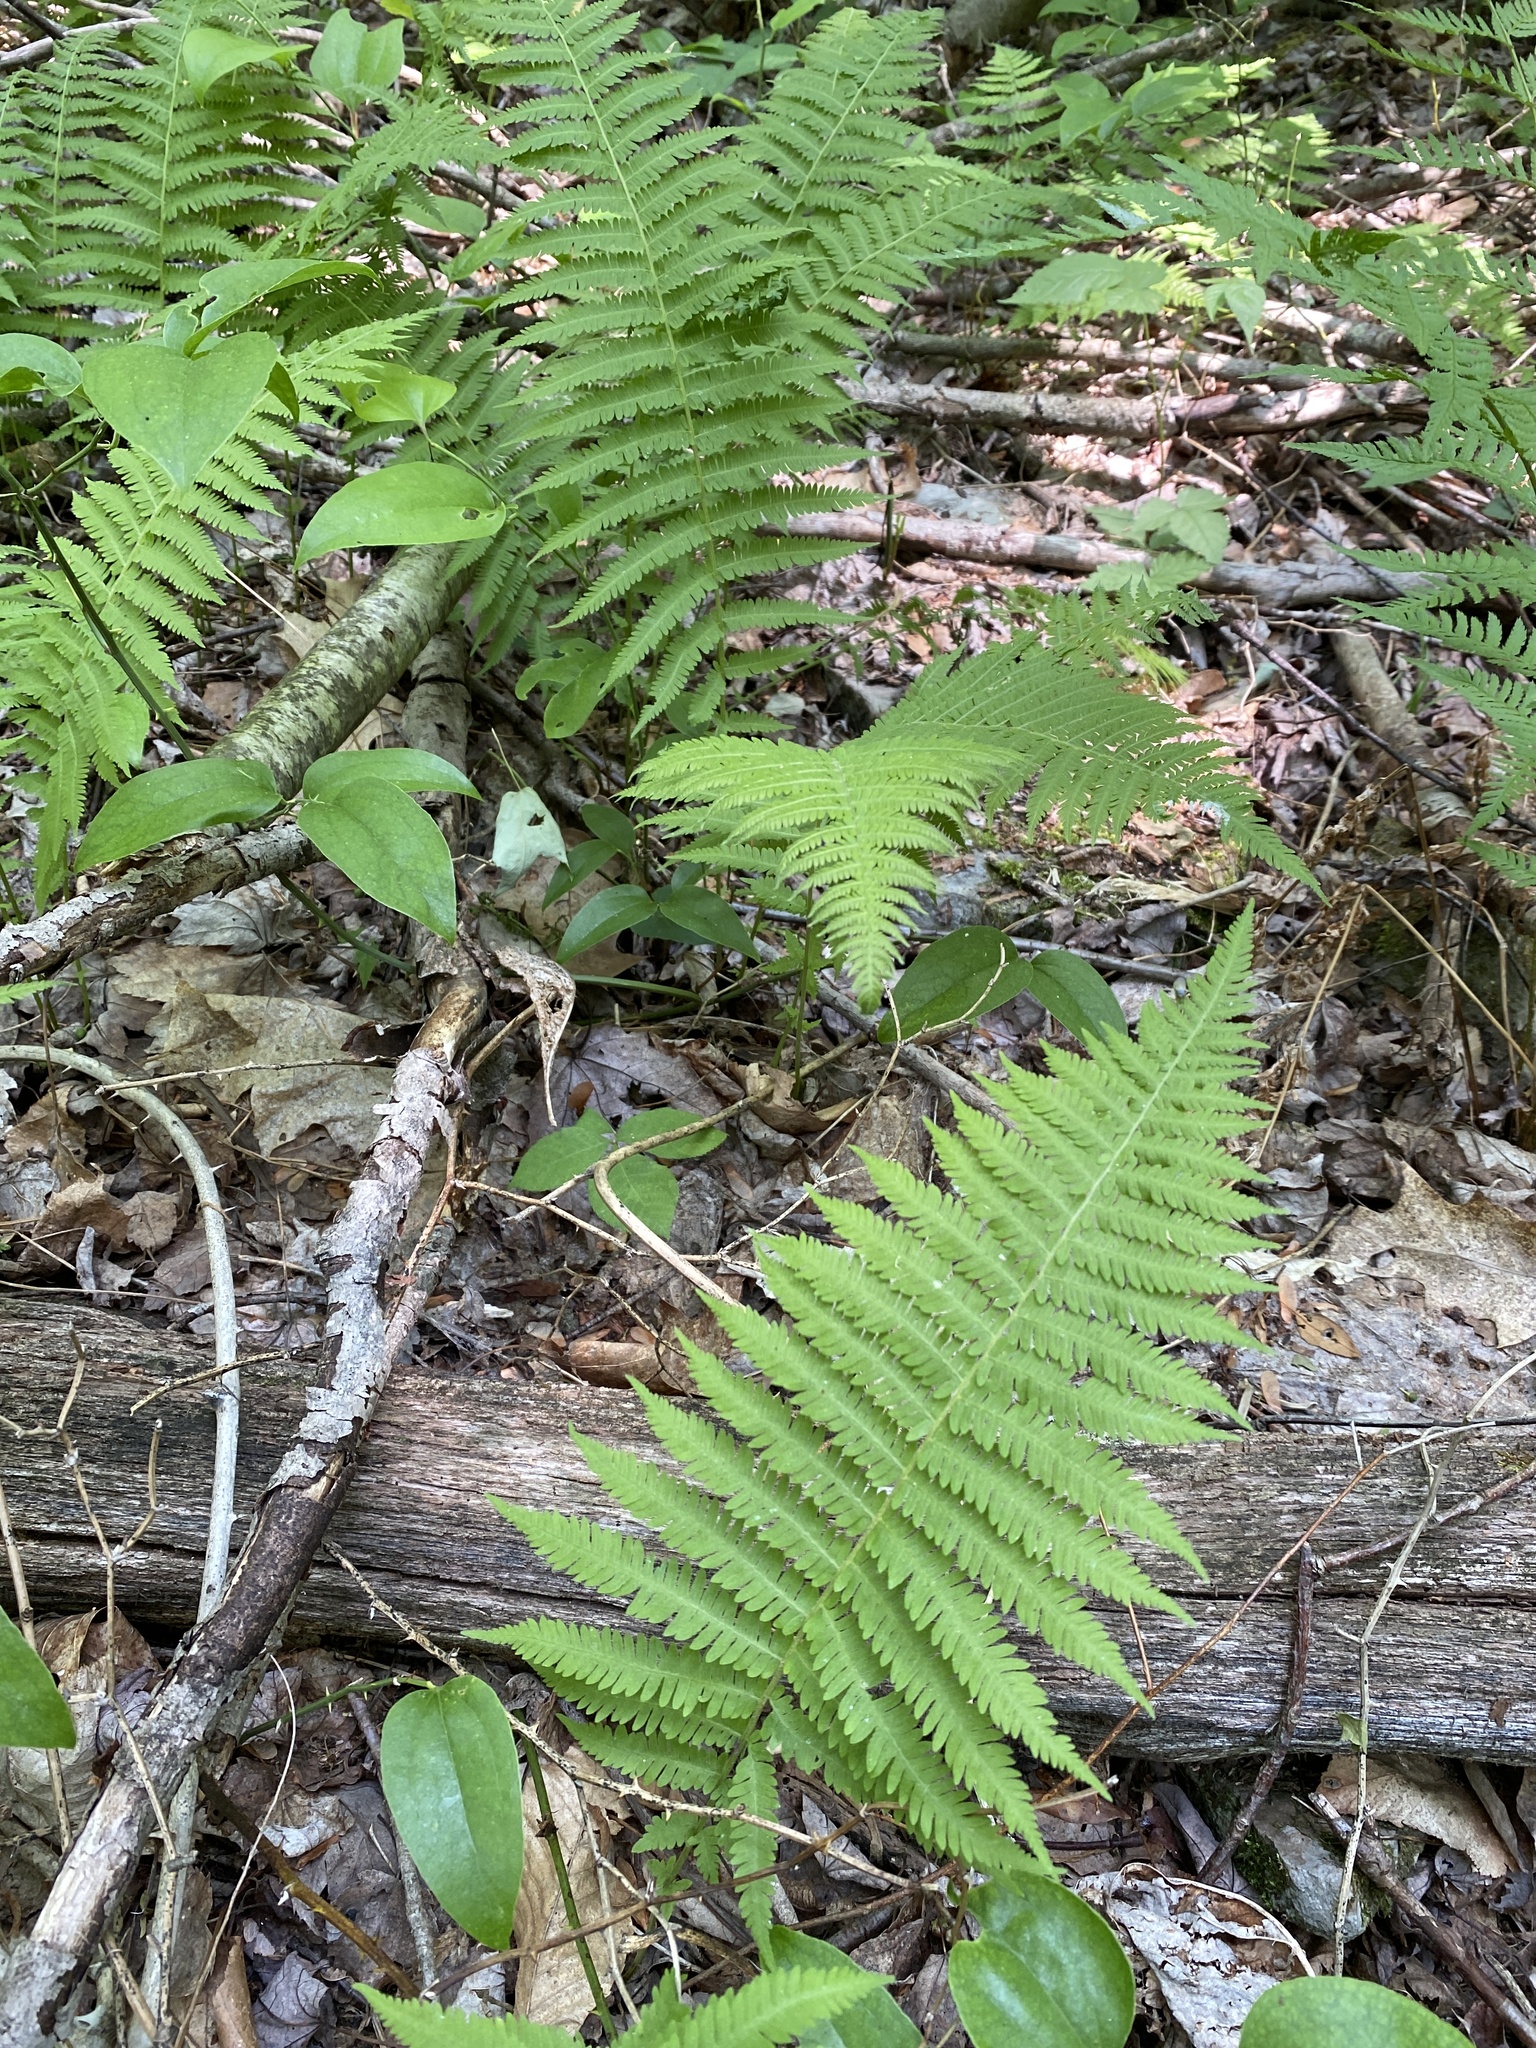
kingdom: Plantae
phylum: Tracheophyta
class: Polypodiopsida
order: Polypodiales
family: Thelypteridaceae
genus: Amauropelta
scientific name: Amauropelta noveboracensis
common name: New york fern
